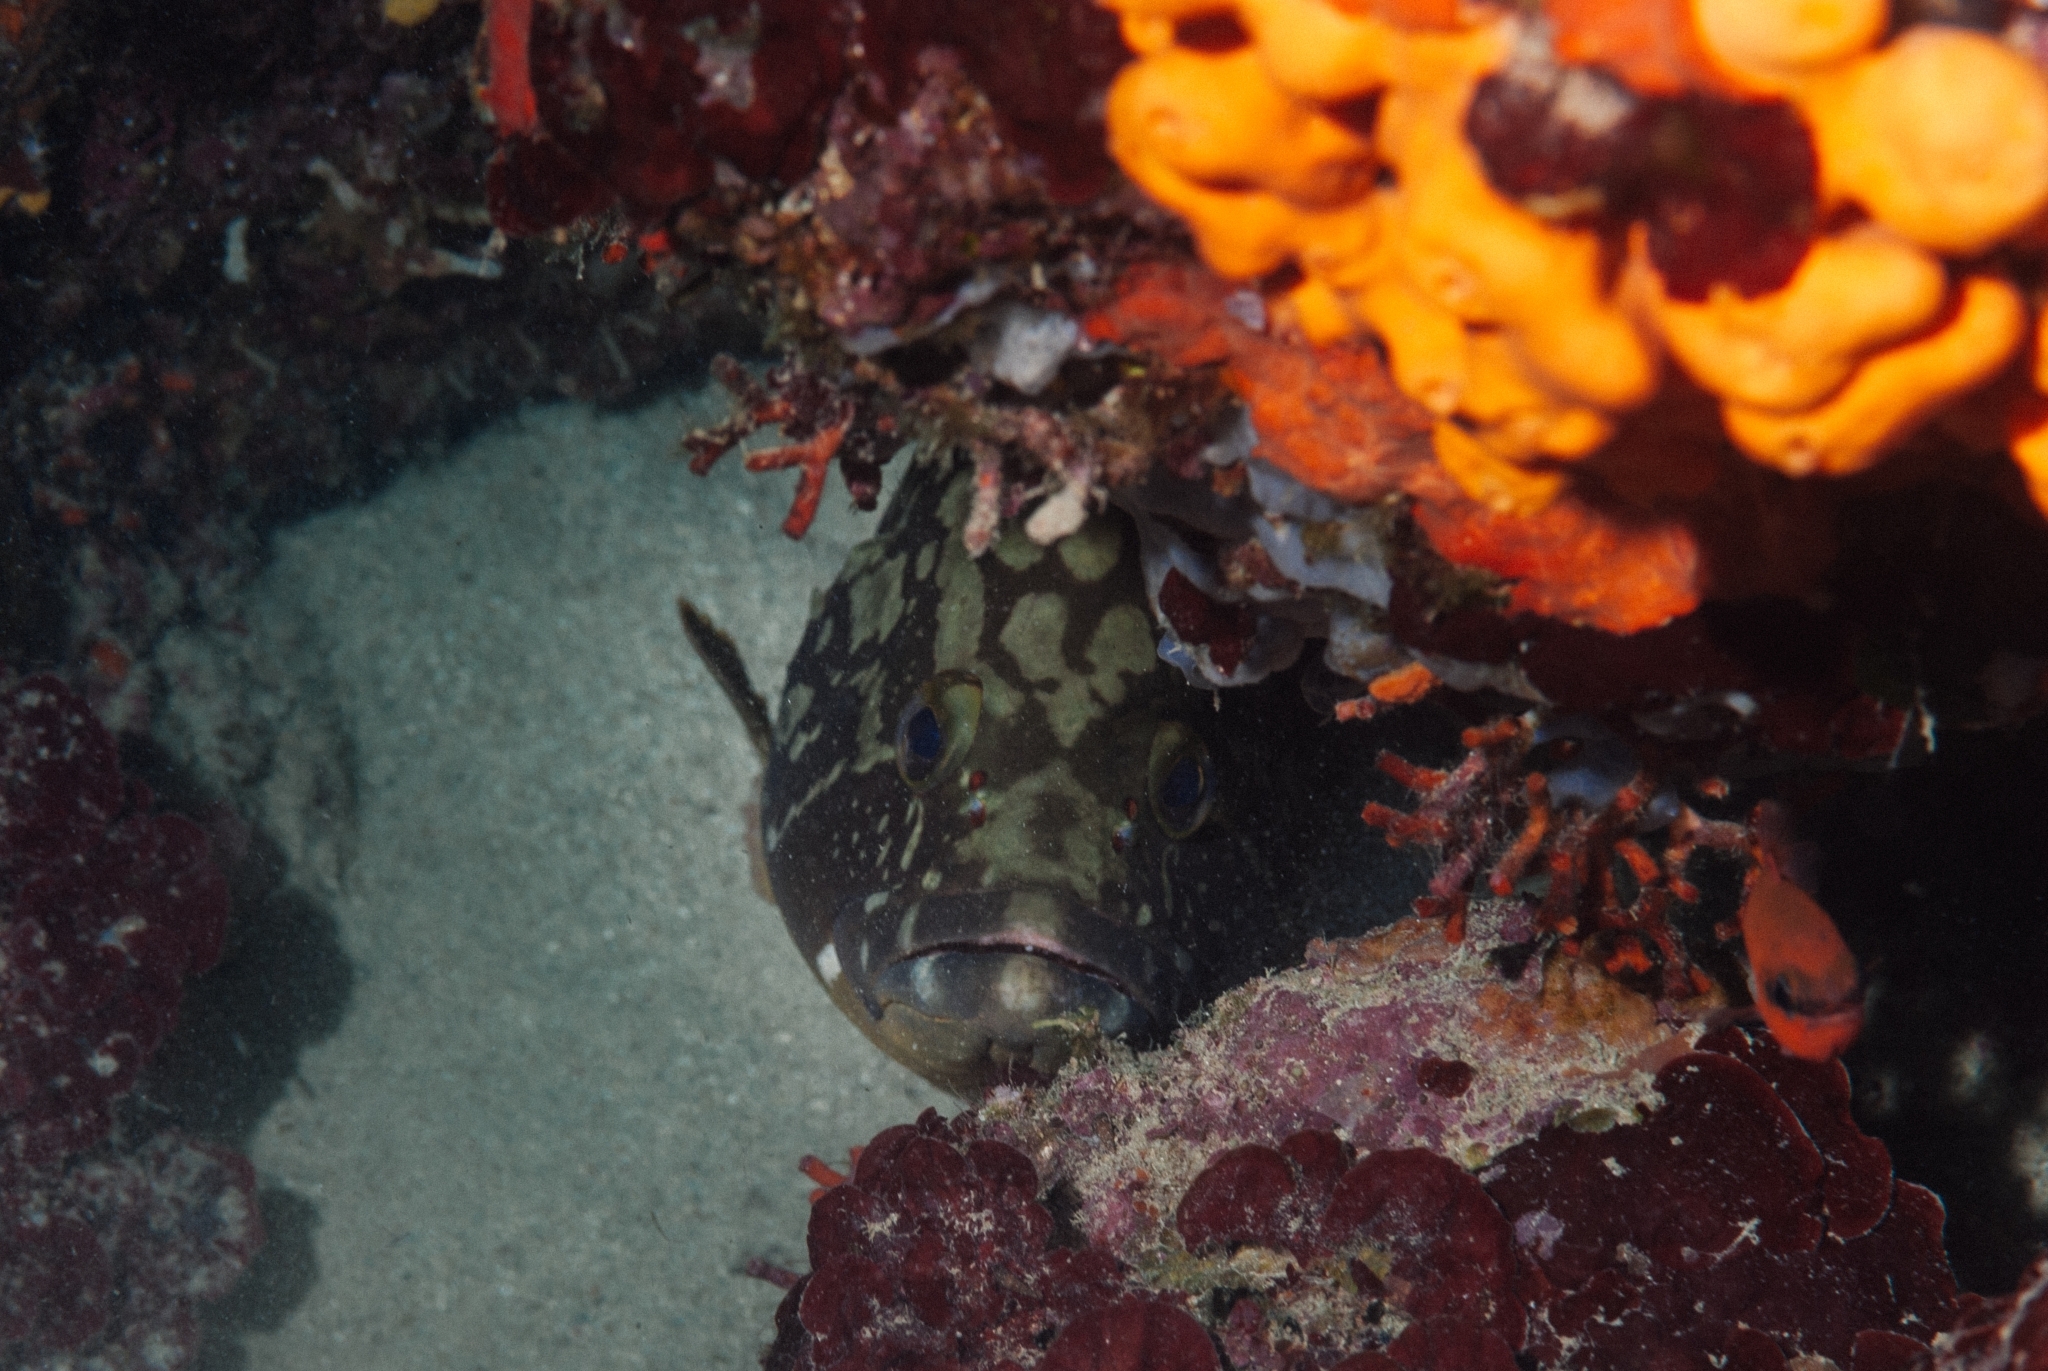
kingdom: Animalia
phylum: Chordata
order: Perciformes
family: Serranidae
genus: Epinephelus
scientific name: Epinephelus marginatus
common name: Dusky grouper
